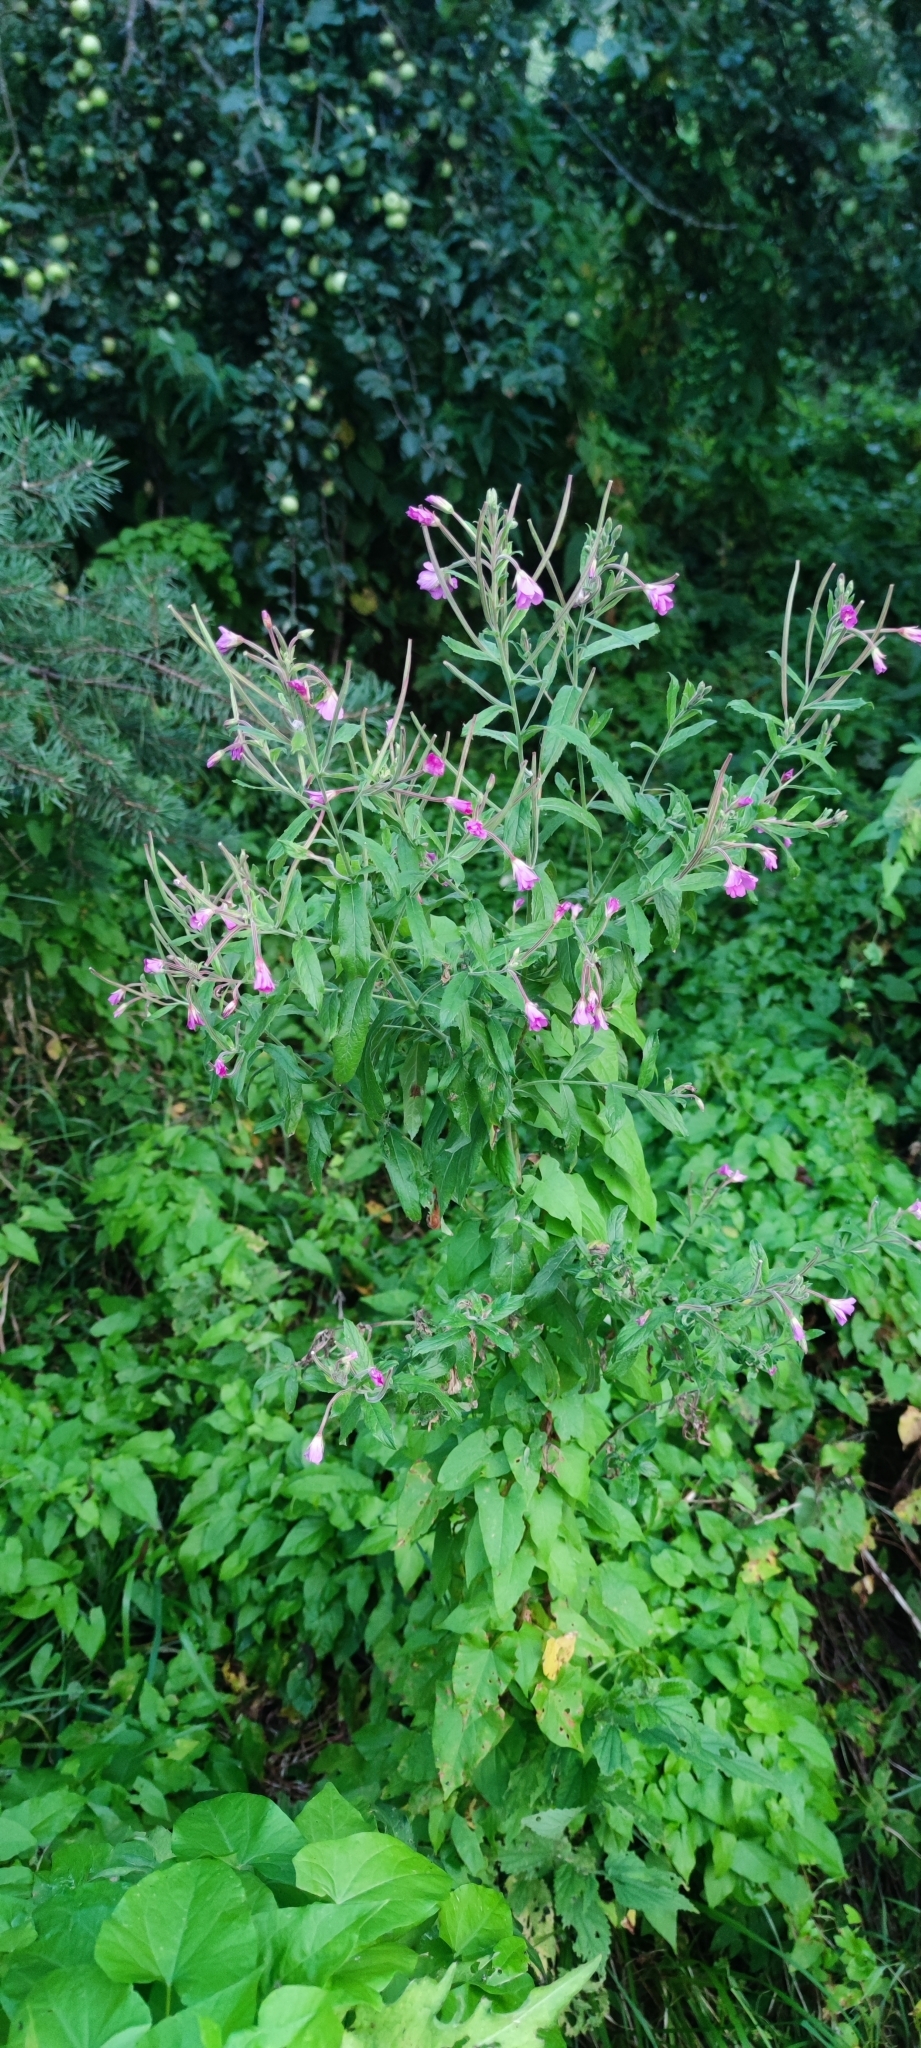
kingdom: Plantae
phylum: Tracheophyta
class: Magnoliopsida
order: Myrtales
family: Onagraceae
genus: Epilobium
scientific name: Epilobium hirsutum
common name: Great willowherb
